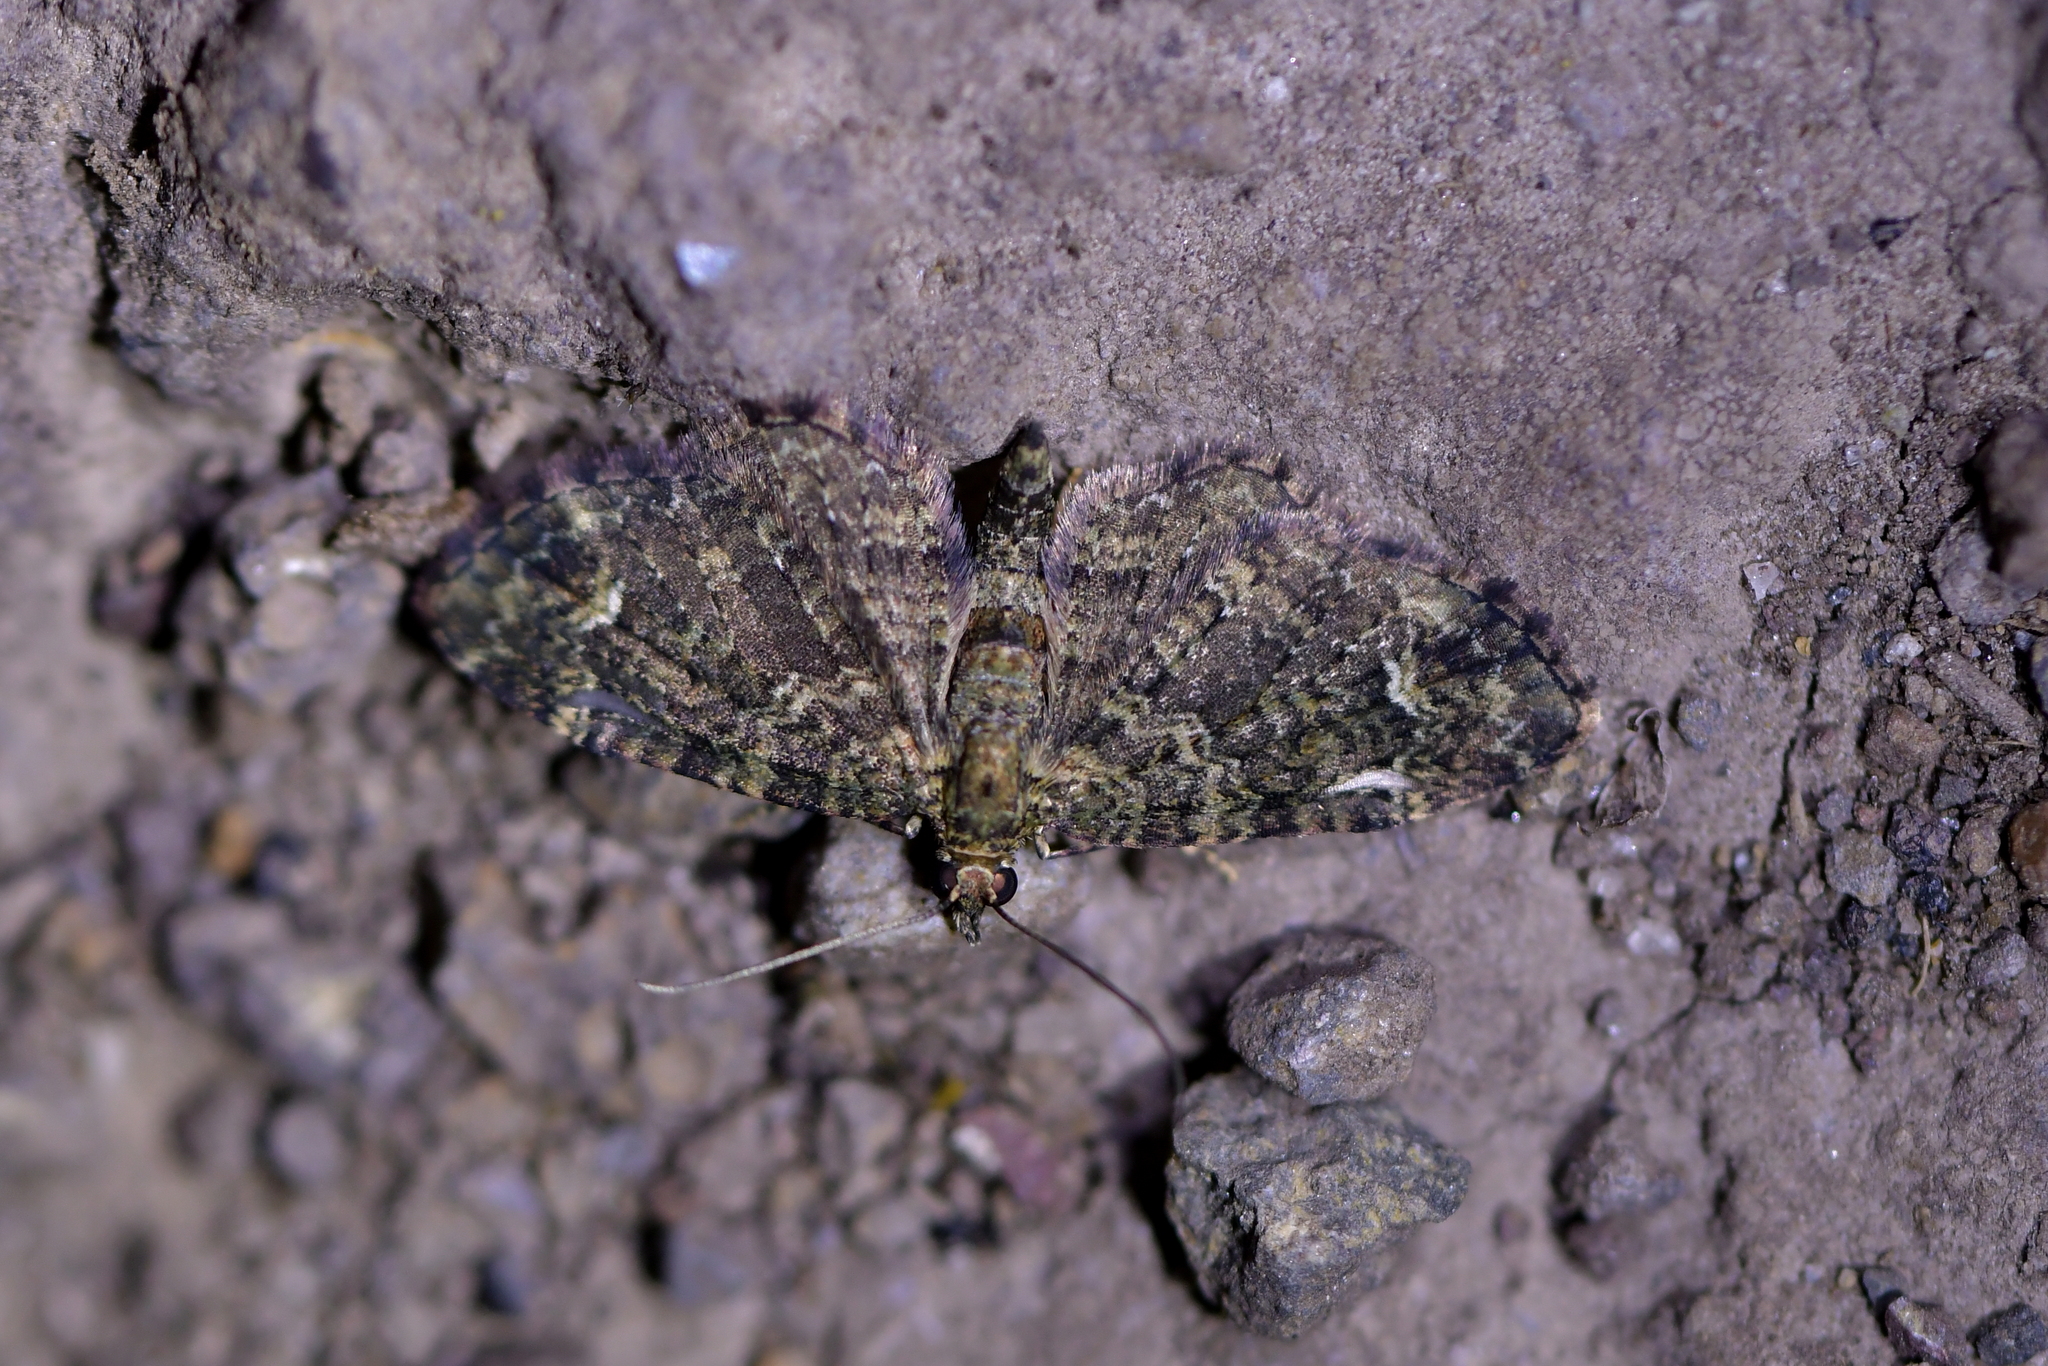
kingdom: Animalia
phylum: Arthropoda
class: Insecta
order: Lepidoptera
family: Geometridae
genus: Pasiphilodes
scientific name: Pasiphilodes testulata
